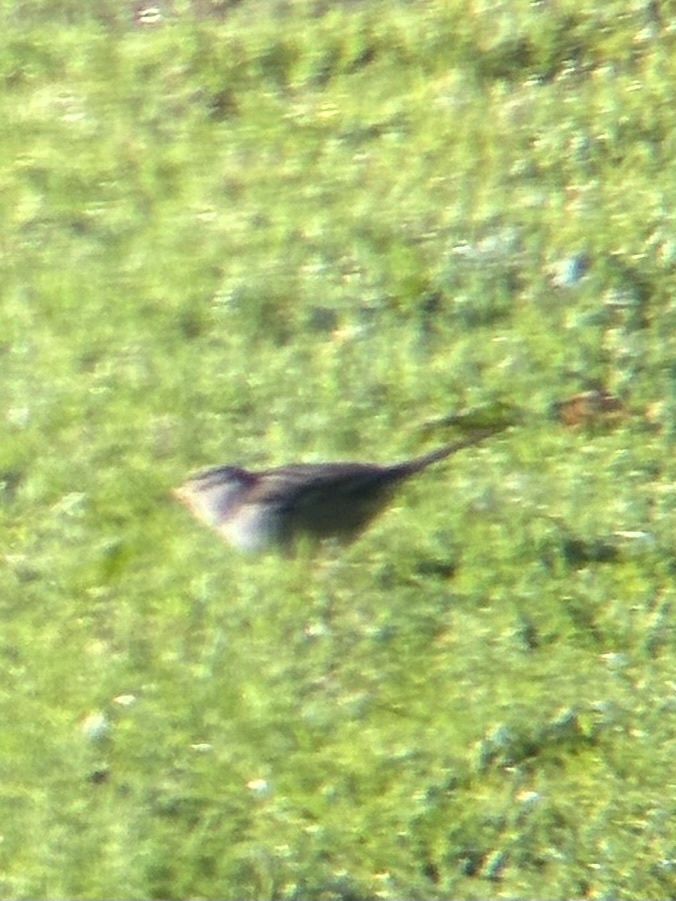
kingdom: Animalia
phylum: Chordata
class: Aves
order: Passeriformes
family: Passerellidae
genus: Zonotrichia
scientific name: Zonotrichia leucophrys
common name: White-crowned sparrow
